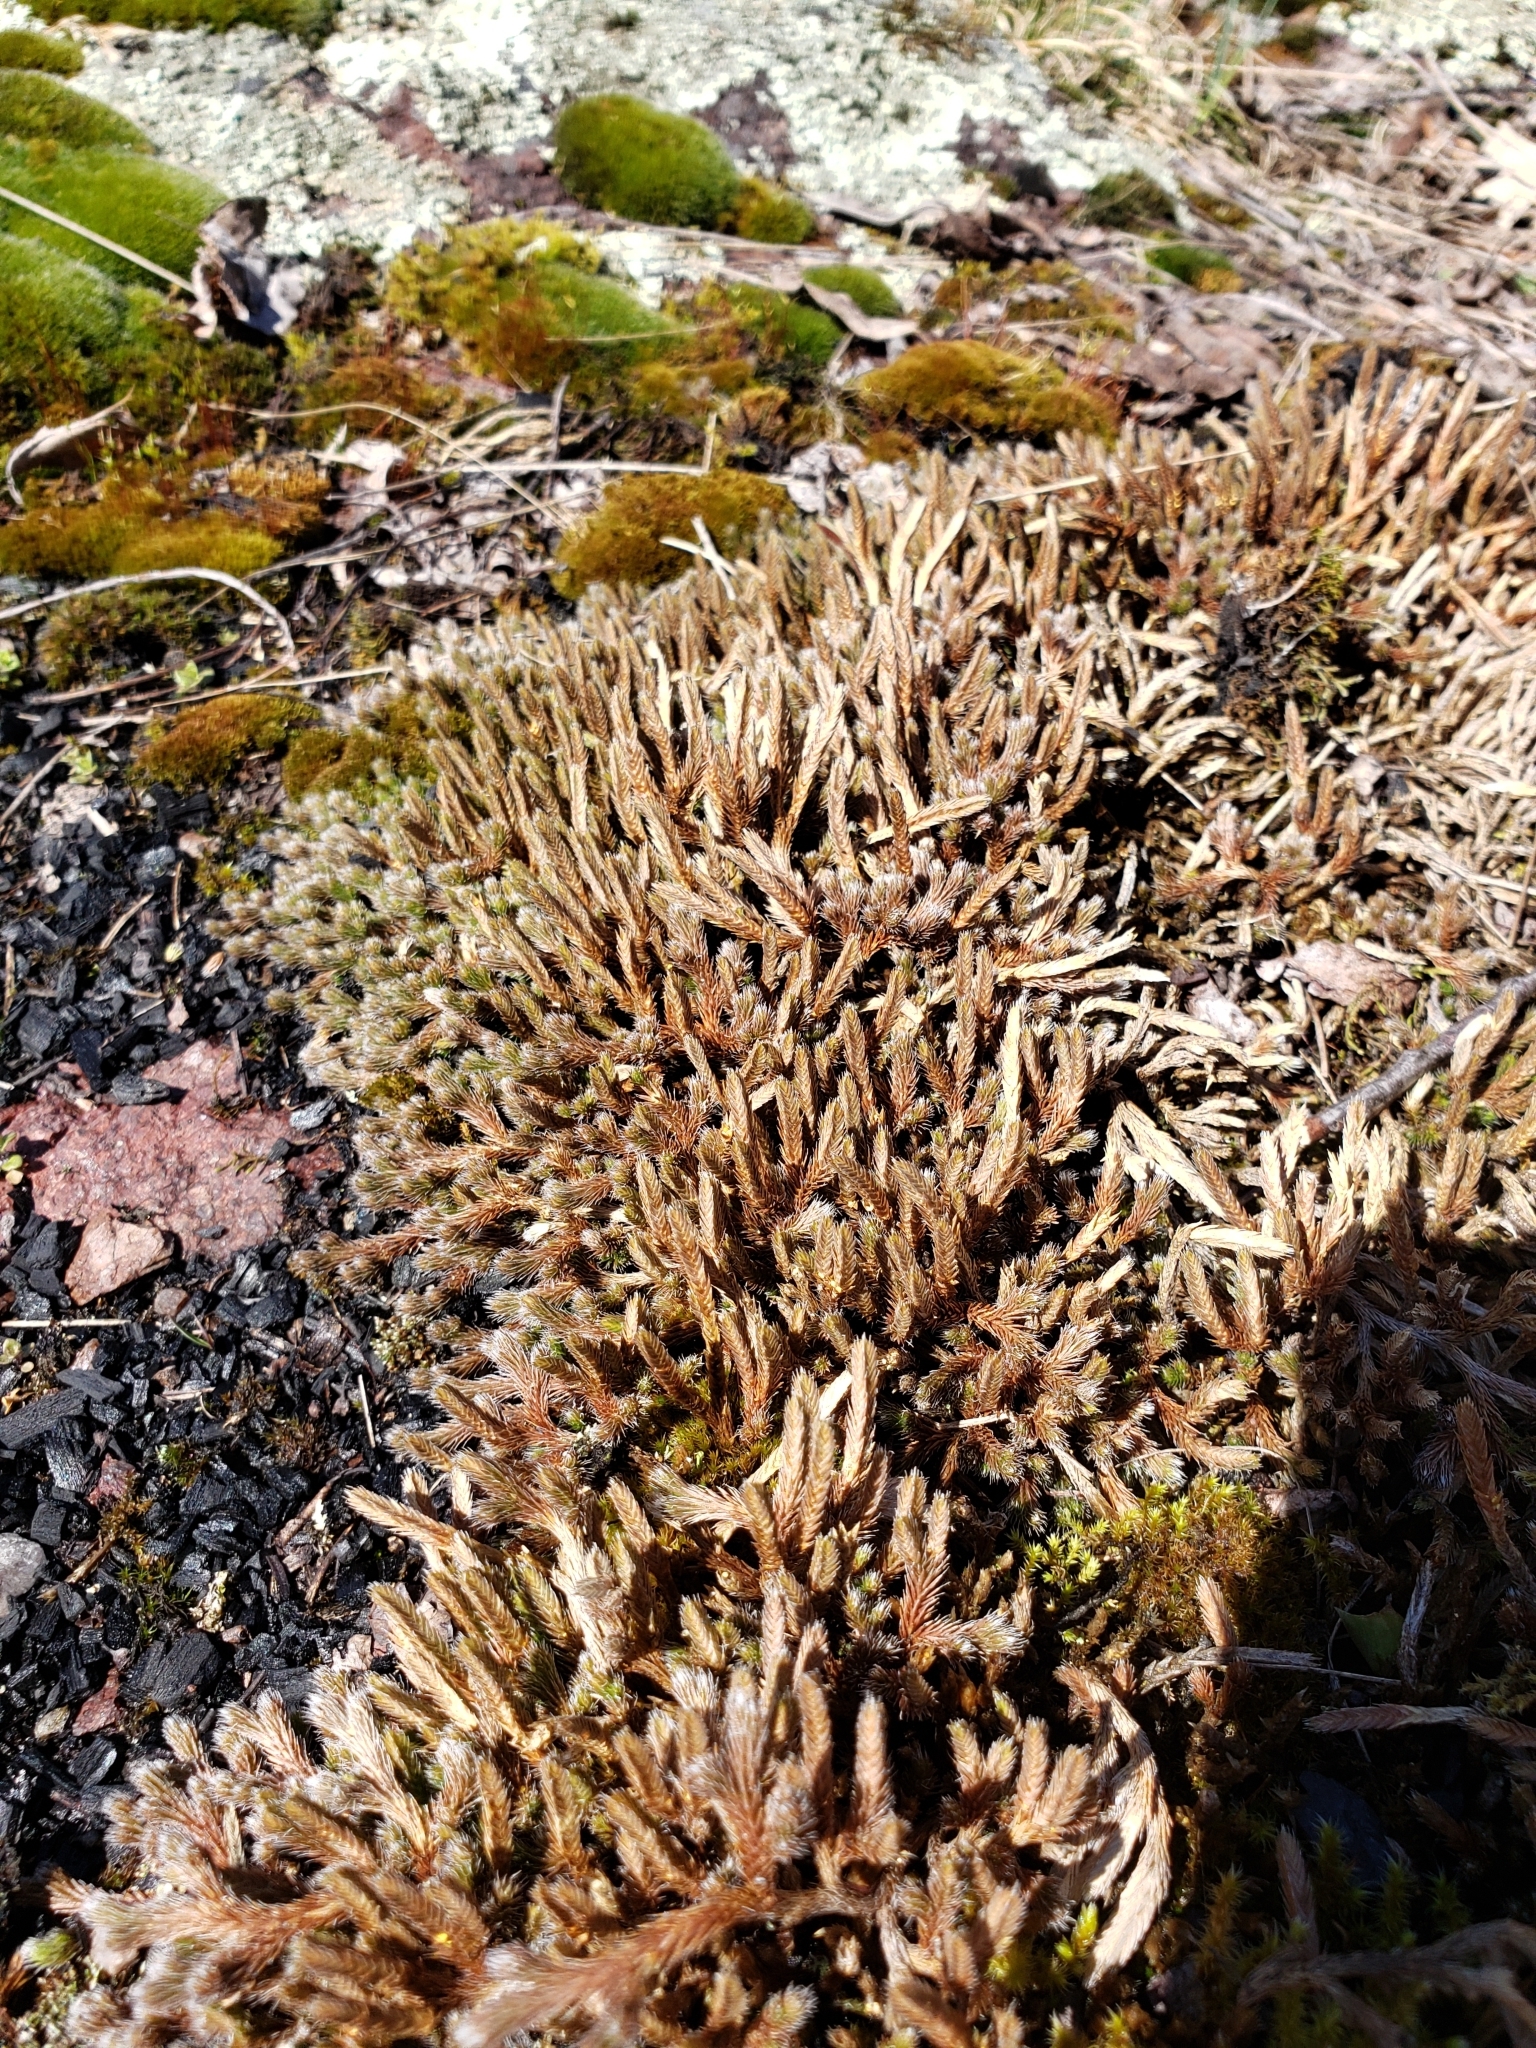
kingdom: Plantae
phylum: Tracheophyta
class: Lycopodiopsida
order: Selaginellales
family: Selaginellaceae
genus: Selaginella
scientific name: Selaginella rupestris
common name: Dwarf spikemoss
